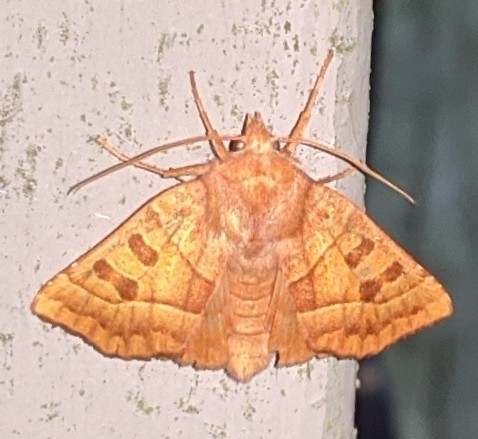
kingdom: Animalia
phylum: Arthropoda
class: Insecta
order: Lepidoptera
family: Noctuidae
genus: Eucirroedia
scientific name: Eucirroedia pampina
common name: Scalloped sallow
